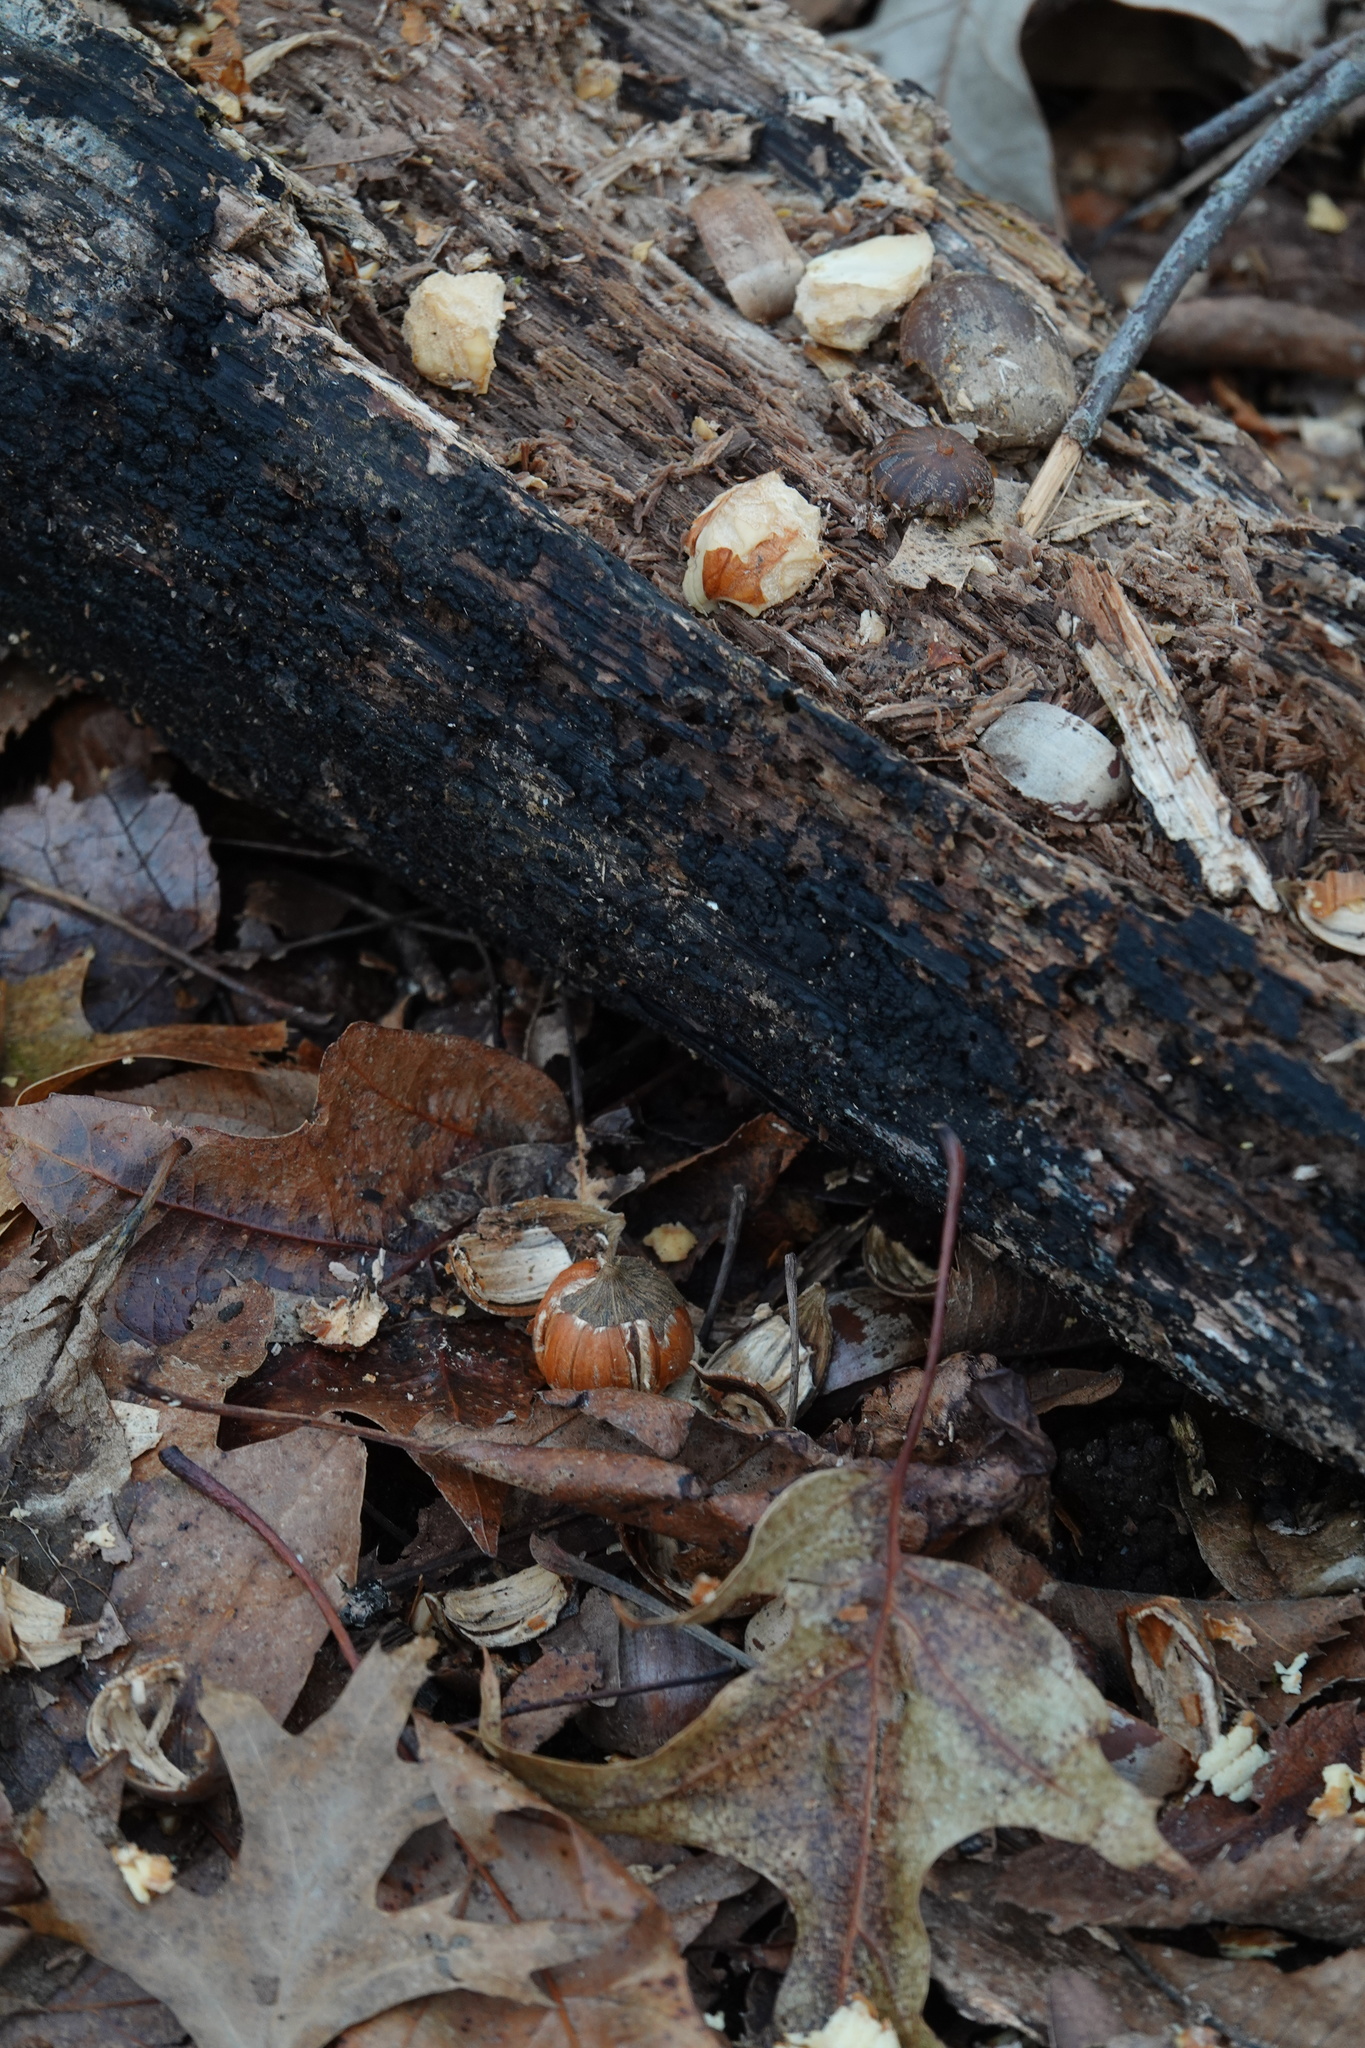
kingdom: Animalia
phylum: Chordata
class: Mammalia
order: Rodentia
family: Sciuridae
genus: Sciurus
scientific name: Sciurus carolinensis
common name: Eastern gray squirrel
